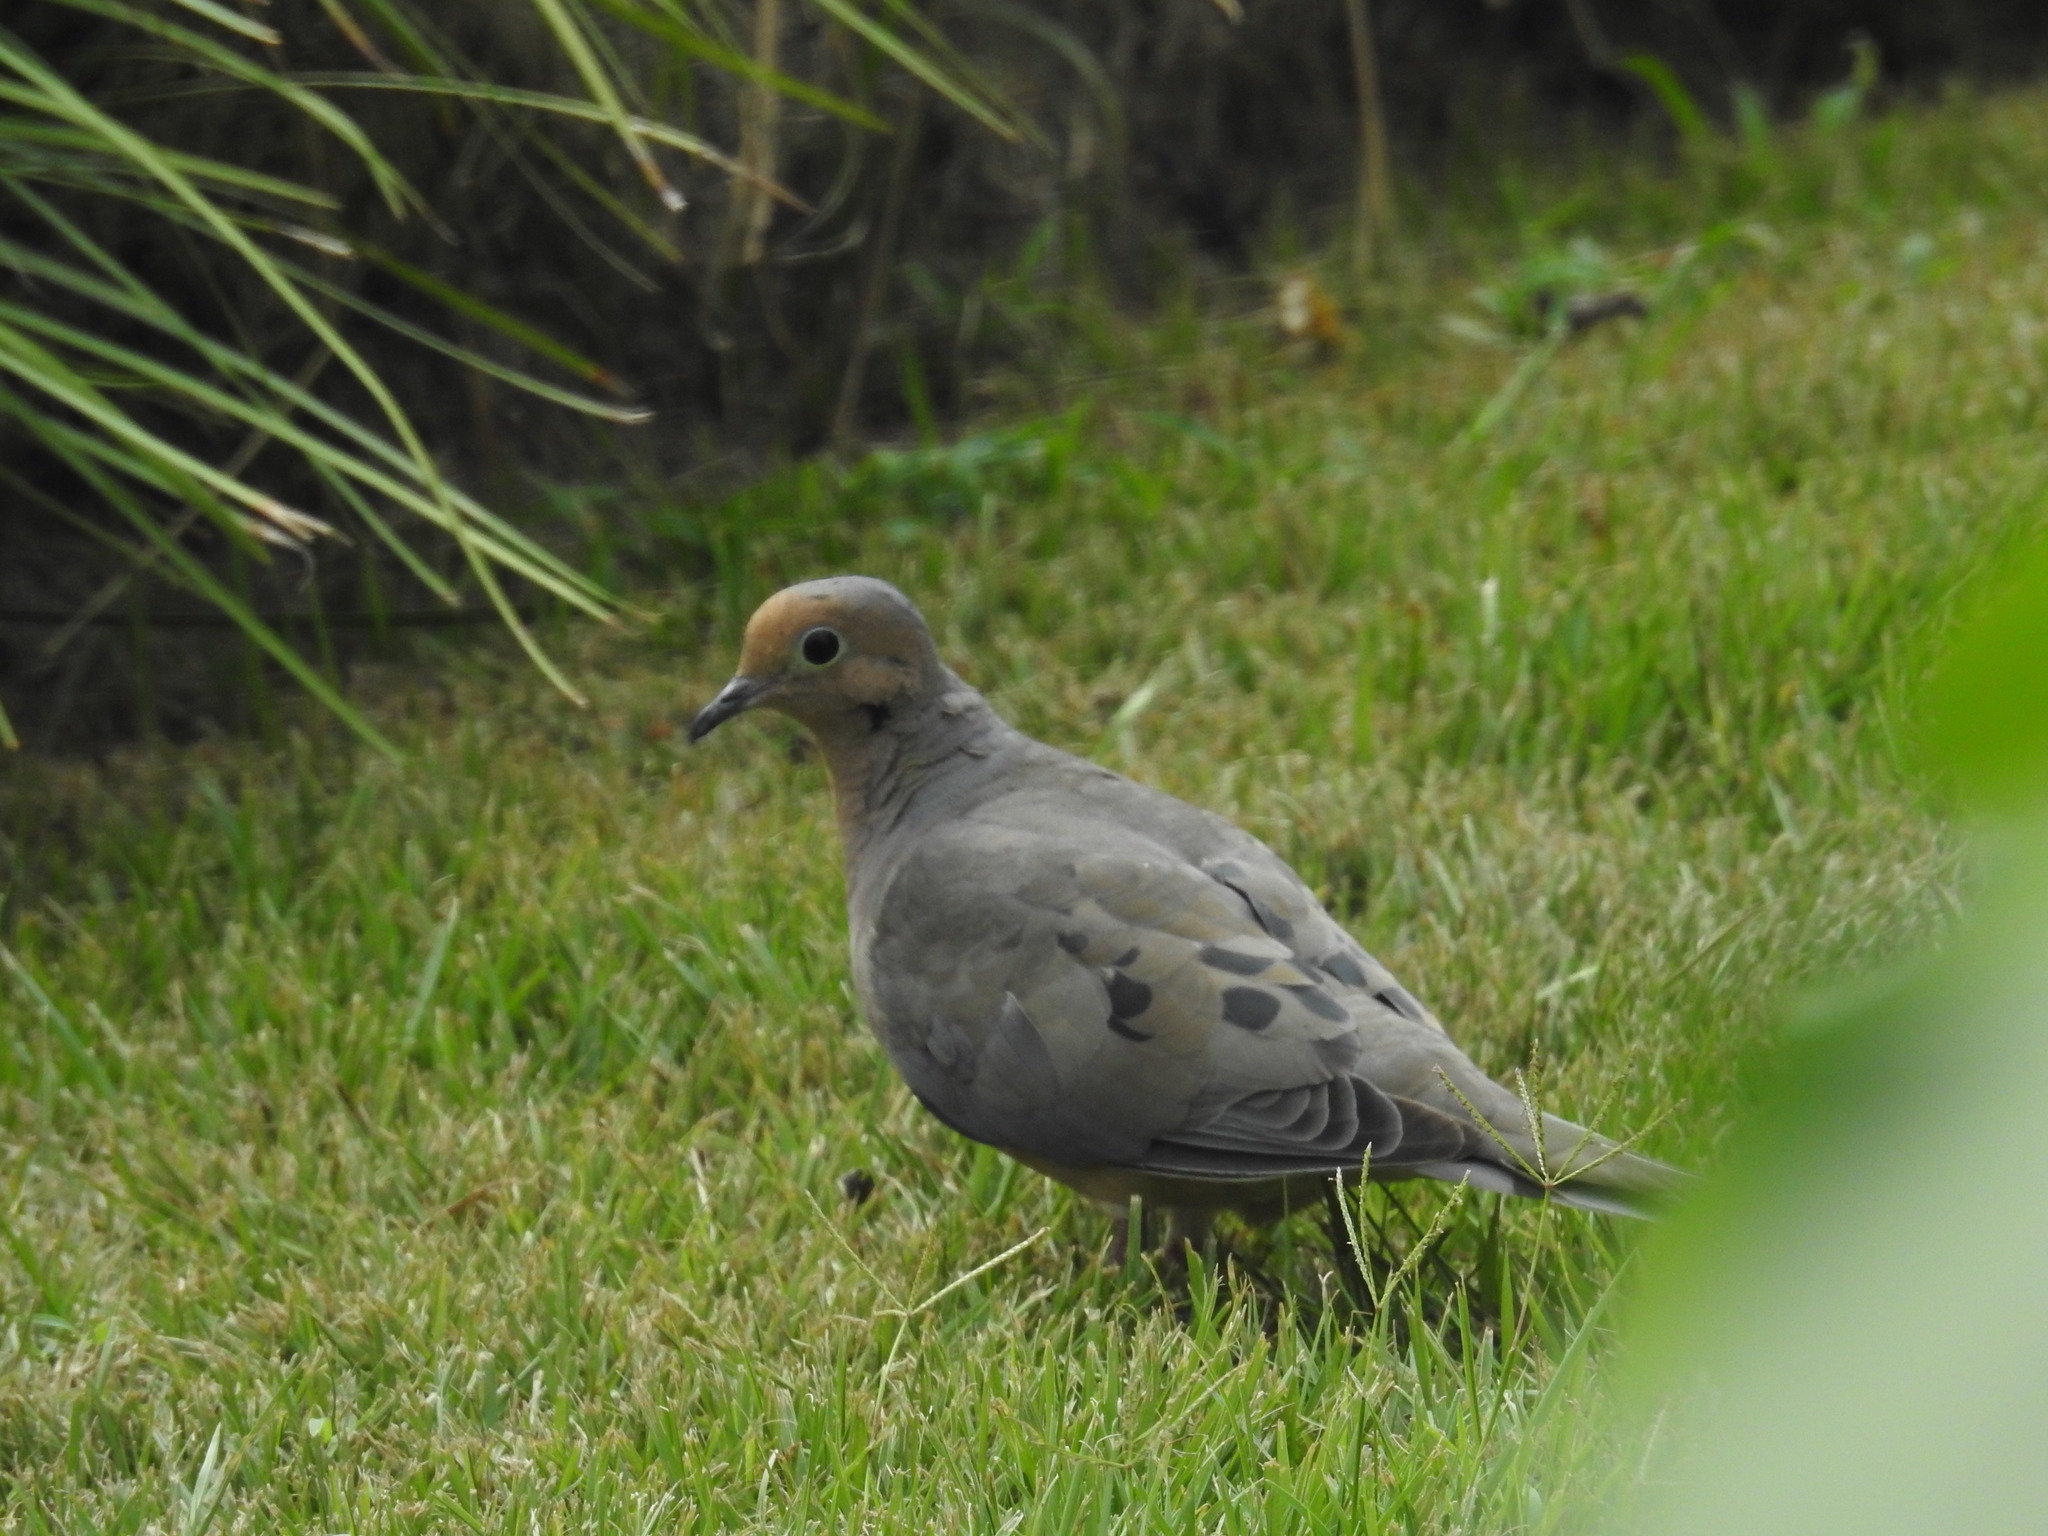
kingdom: Animalia
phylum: Chordata
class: Aves
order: Columbiformes
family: Columbidae
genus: Zenaida
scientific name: Zenaida macroura
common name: Mourning dove
